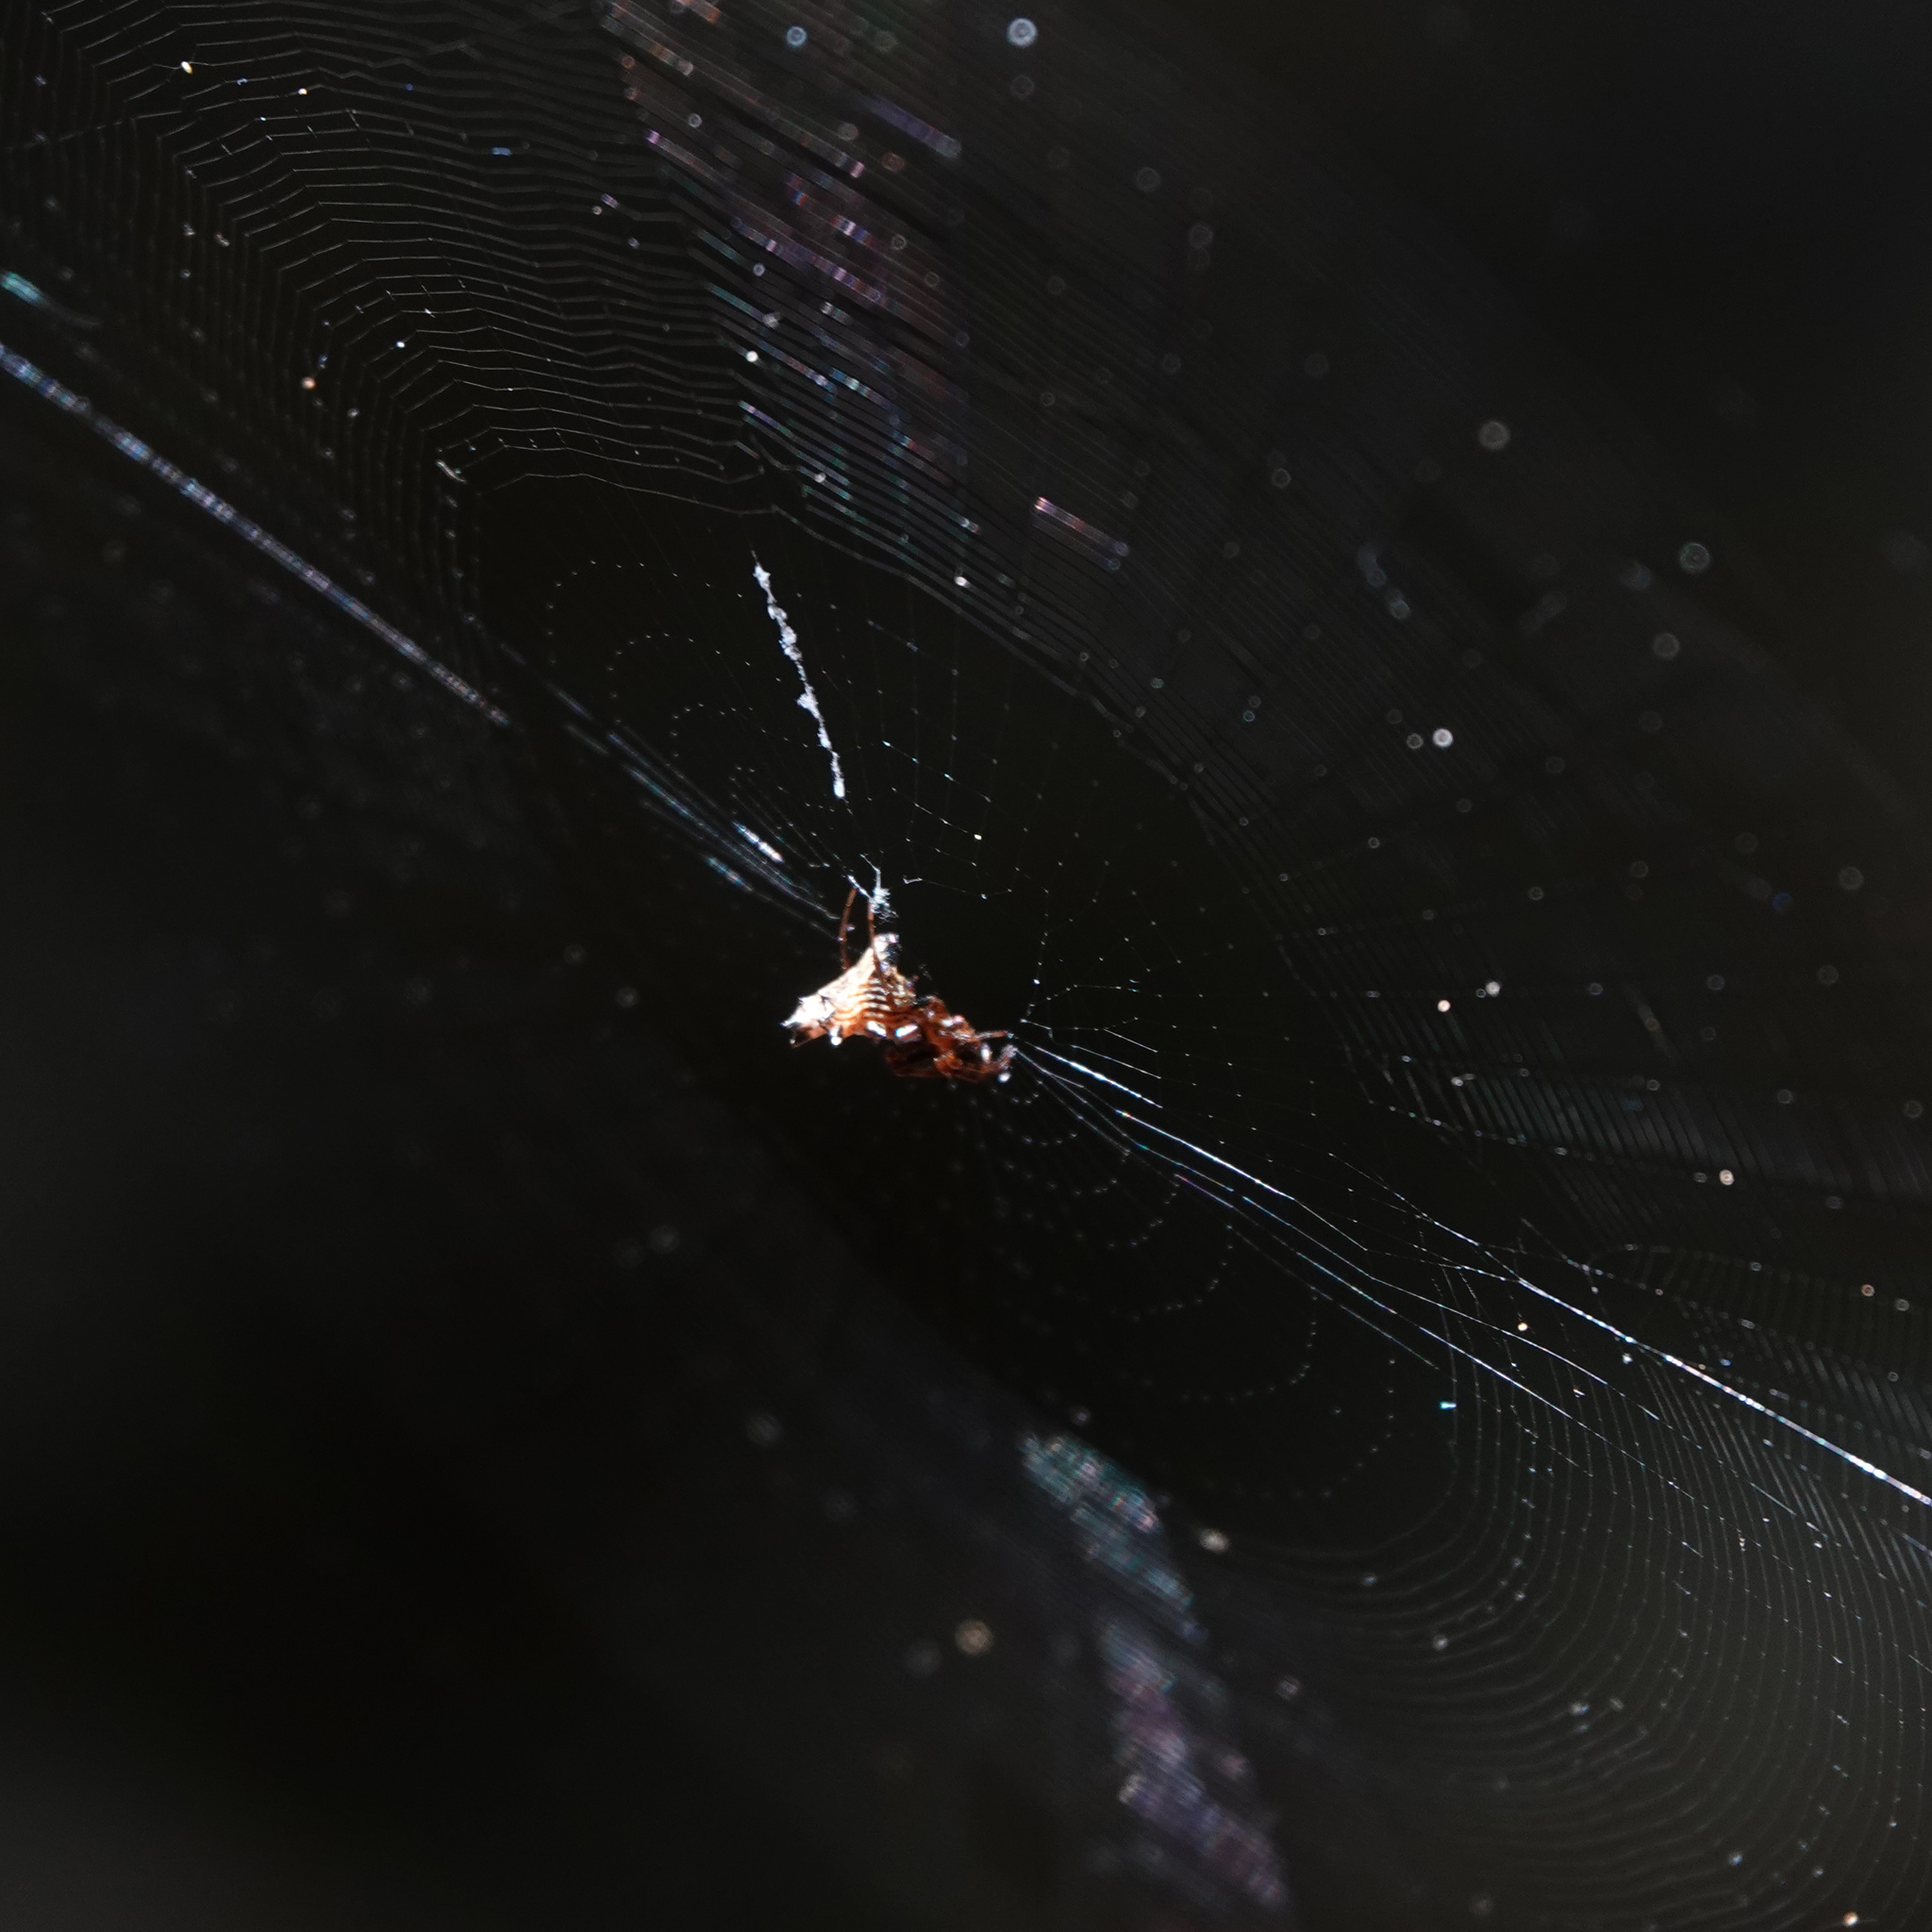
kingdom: Animalia
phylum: Arthropoda
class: Arachnida
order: Araneae
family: Araneidae
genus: Micrathena
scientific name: Micrathena gracilis
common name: Orb weavers
